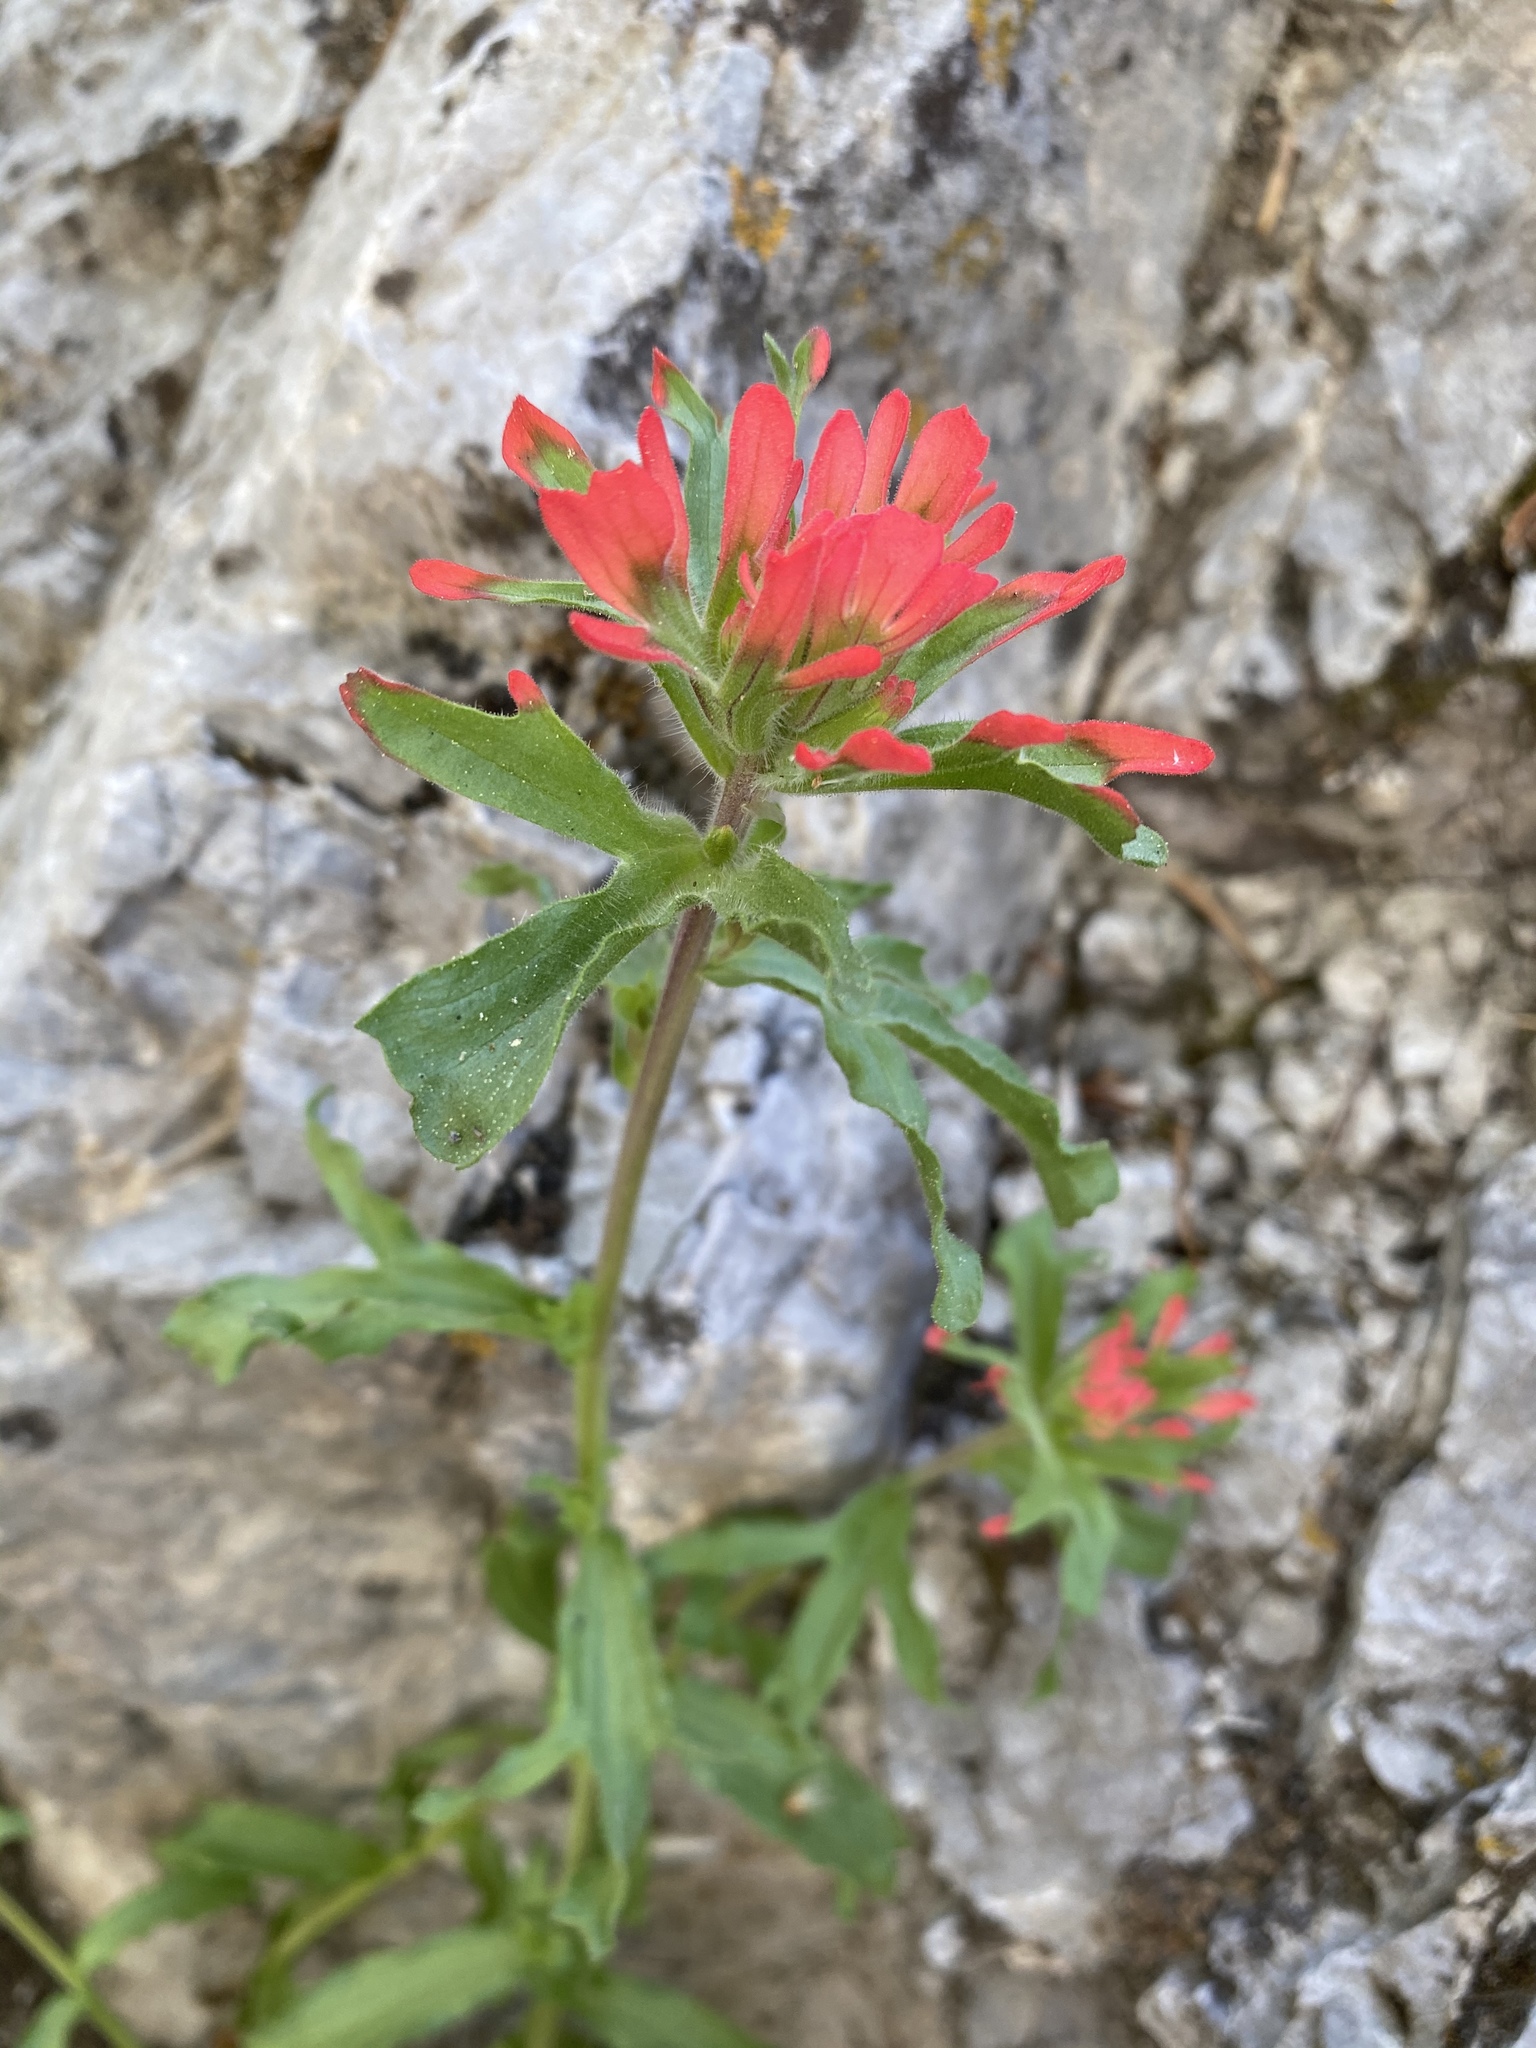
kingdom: Plantae
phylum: Tracheophyta
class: Magnoliopsida
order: Lamiales
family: Orobanchaceae
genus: Castilleja
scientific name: Castilleja martini
